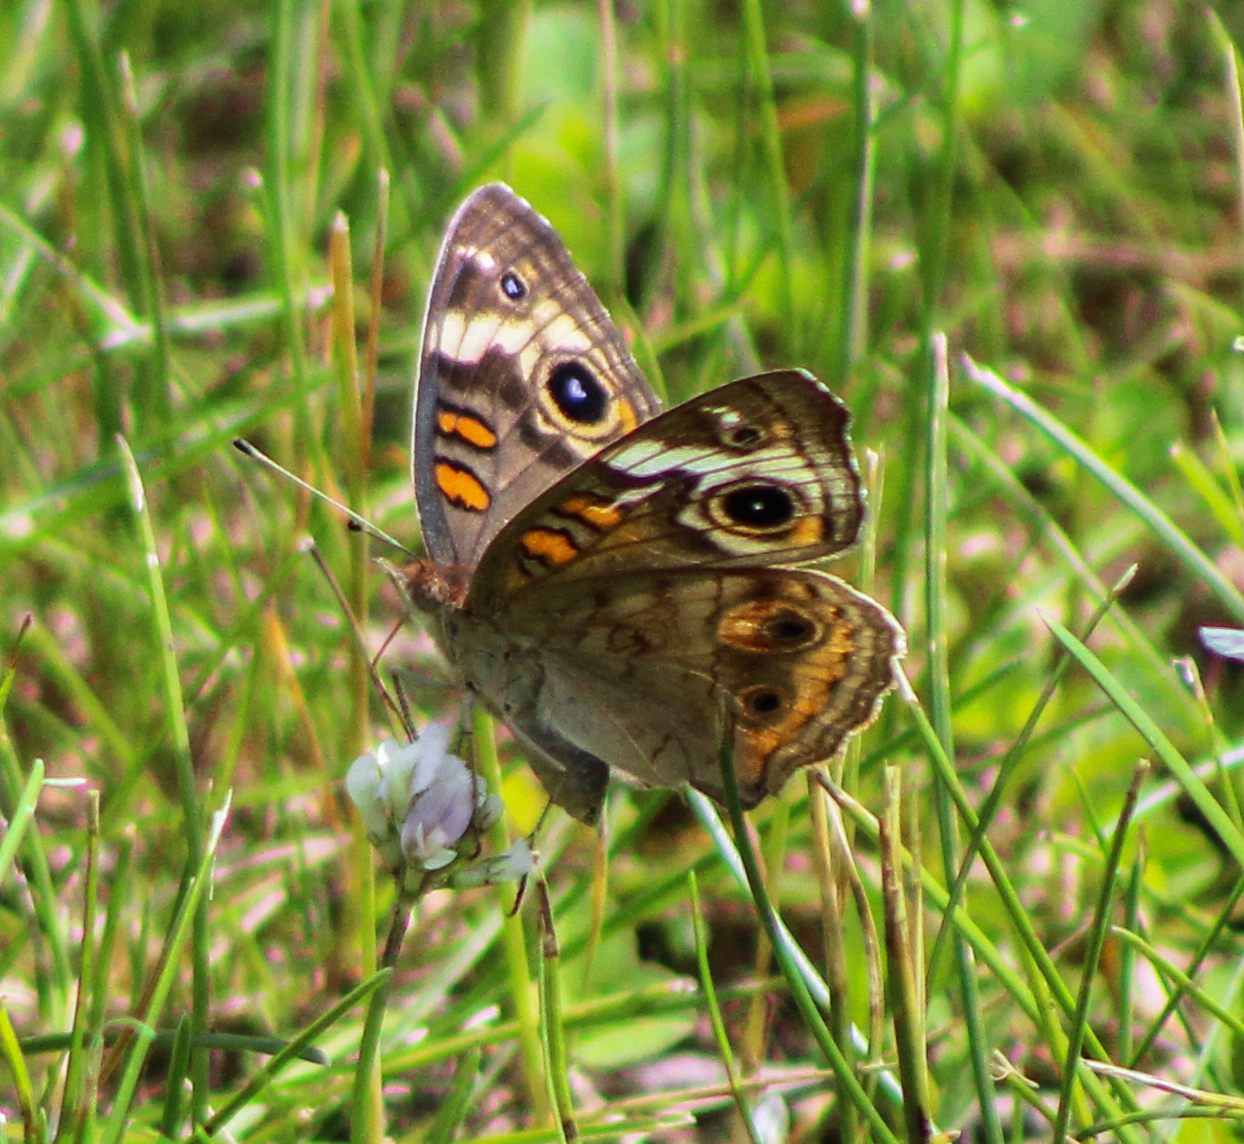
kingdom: Animalia
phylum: Arthropoda
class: Insecta
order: Lepidoptera
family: Nymphalidae
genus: Junonia
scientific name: Junonia coenia
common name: Common buckeye
